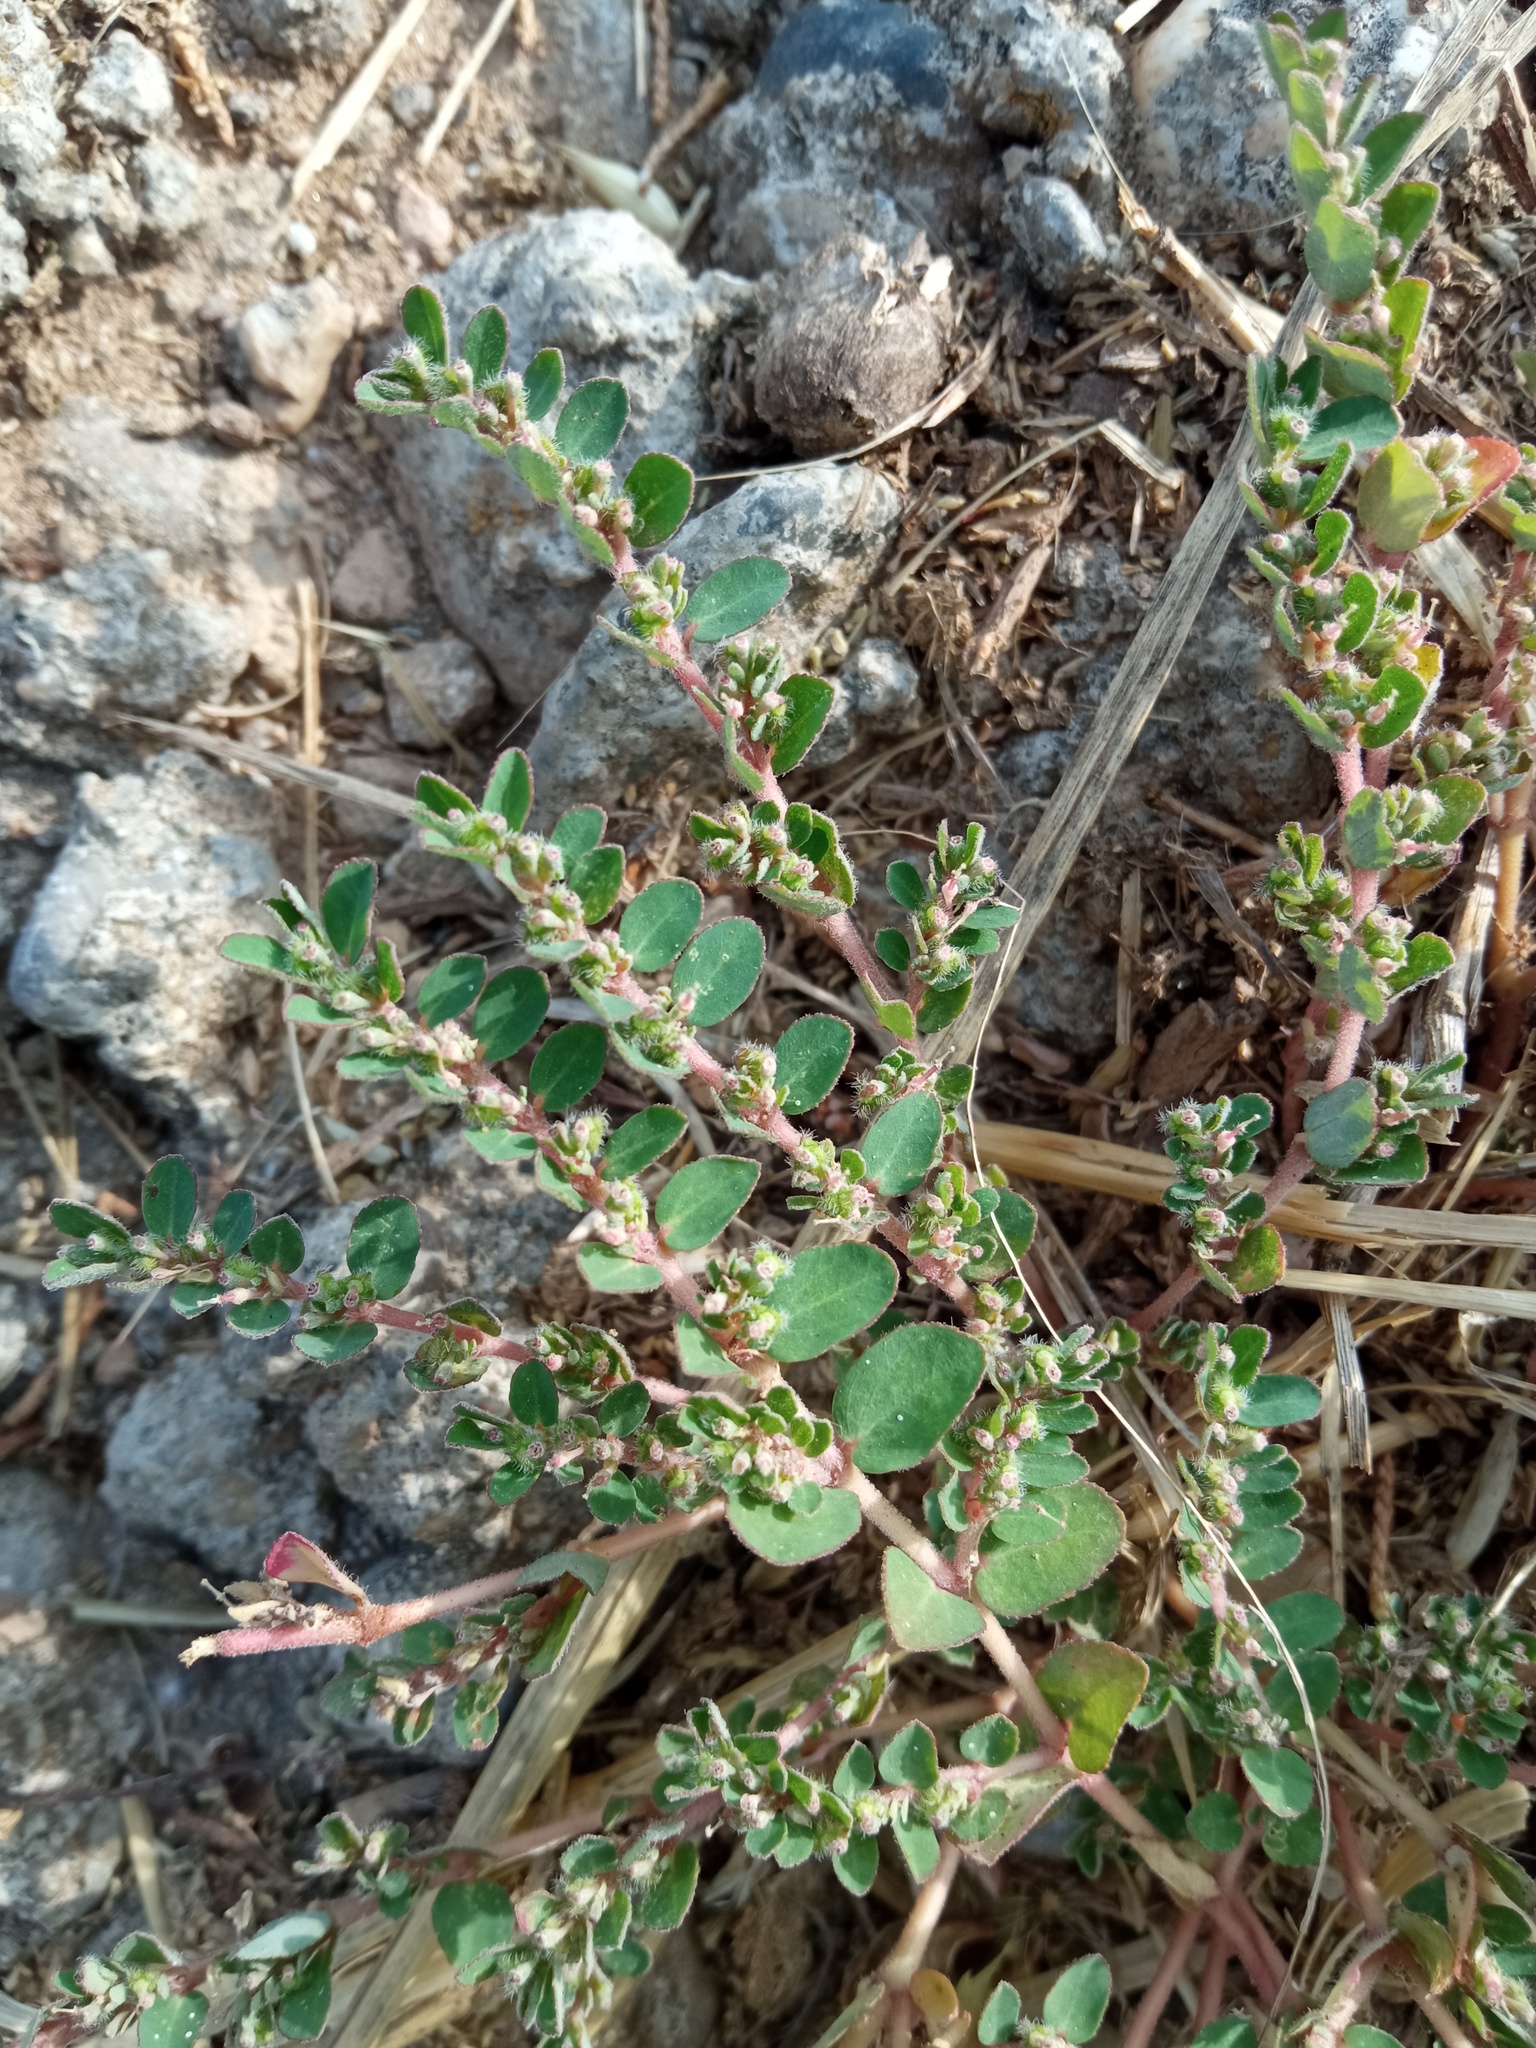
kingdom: Plantae
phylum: Tracheophyta
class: Magnoliopsida
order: Malpighiales
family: Euphorbiaceae
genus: Euphorbia
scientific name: Euphorbia prostrata
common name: Prostrate sandmat
